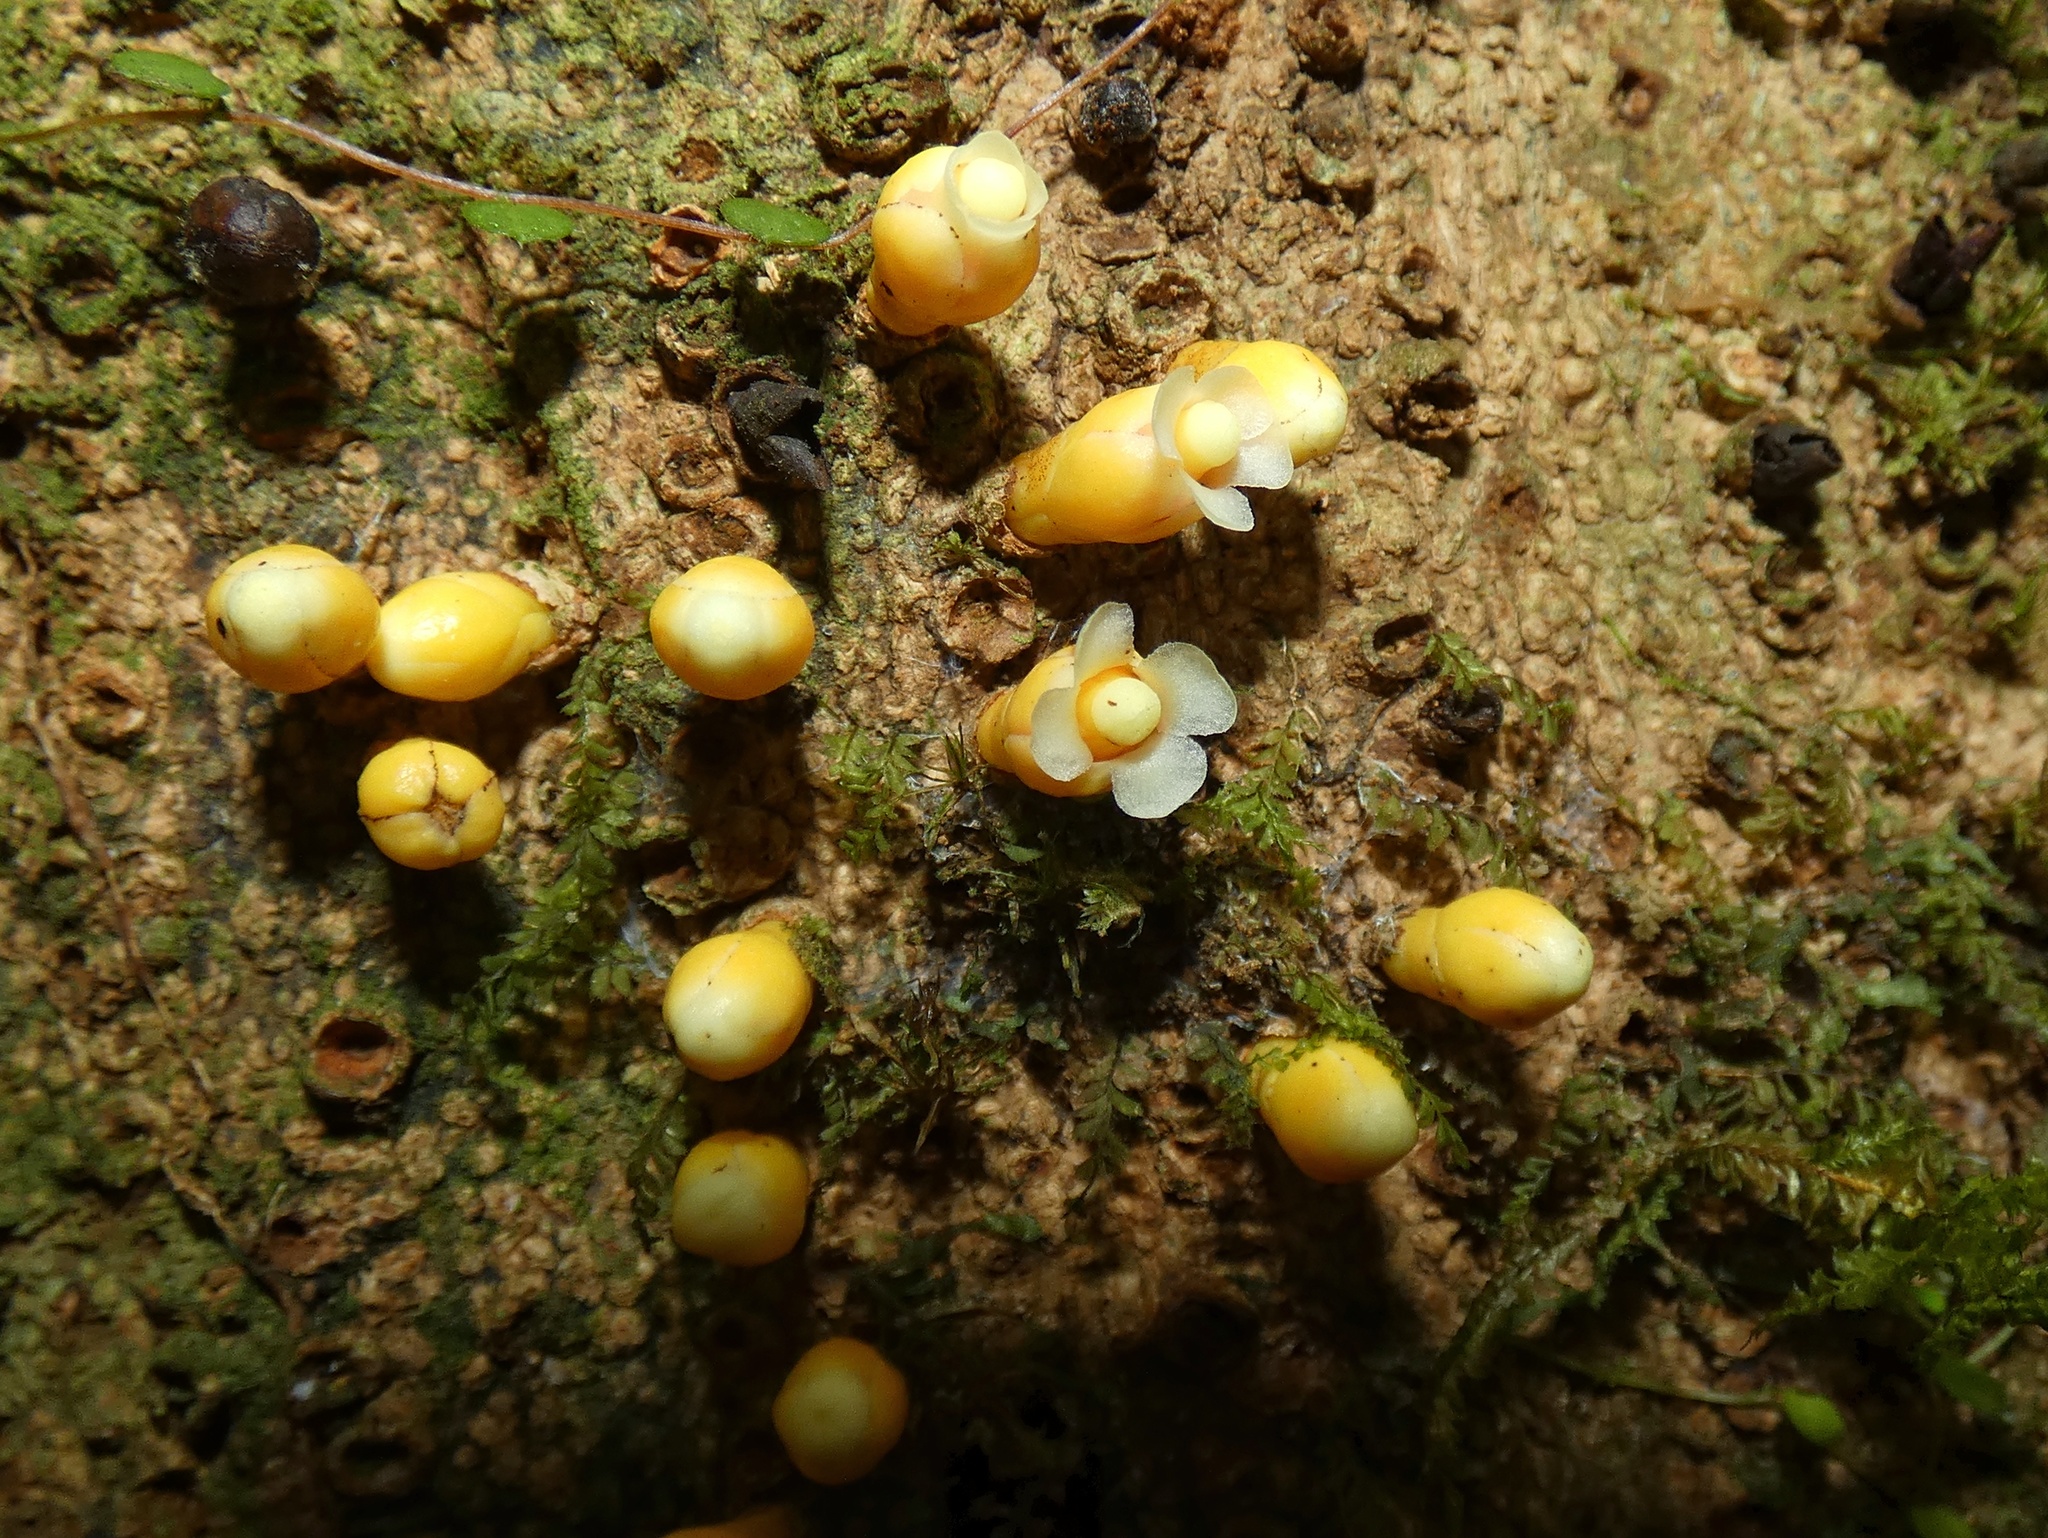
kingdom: Plantae
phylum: Tracheophyta
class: Magnoliopsida
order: Cucurbitales
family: Apodanthaceae
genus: Apodanthes
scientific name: Apodanthes caseariae
